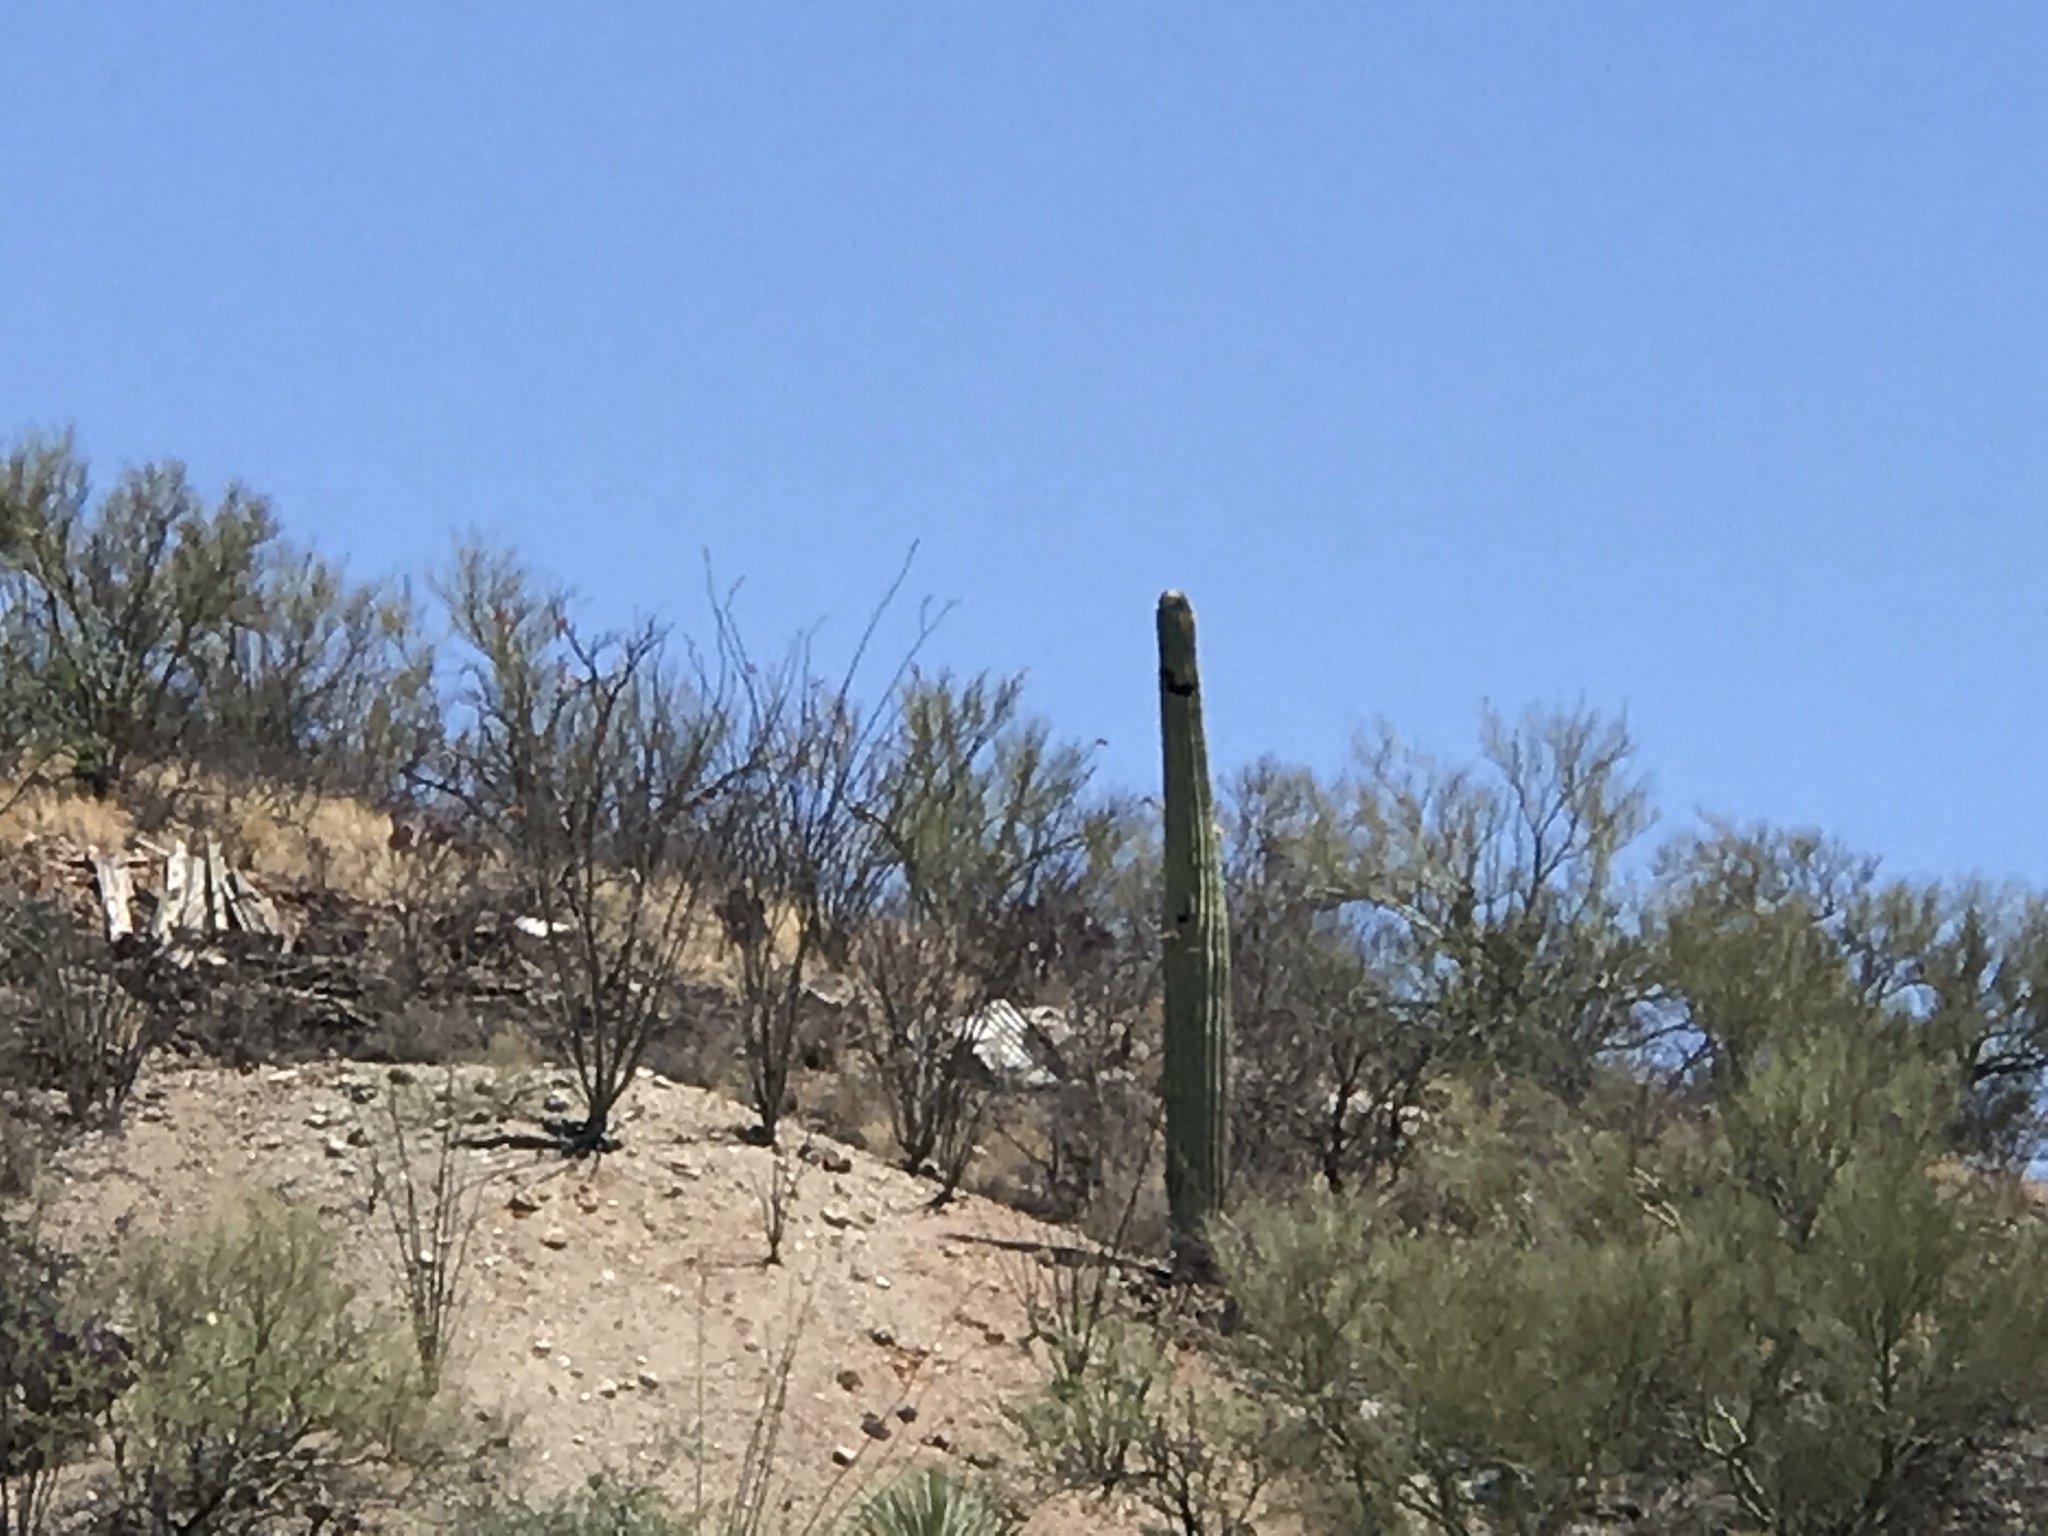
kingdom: Plantae
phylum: Tracheophyta
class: Magnoliopsida
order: Caryophyllales
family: Cactaceae
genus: Carnegiea
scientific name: Carnegiea gigantea
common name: Saguaro
